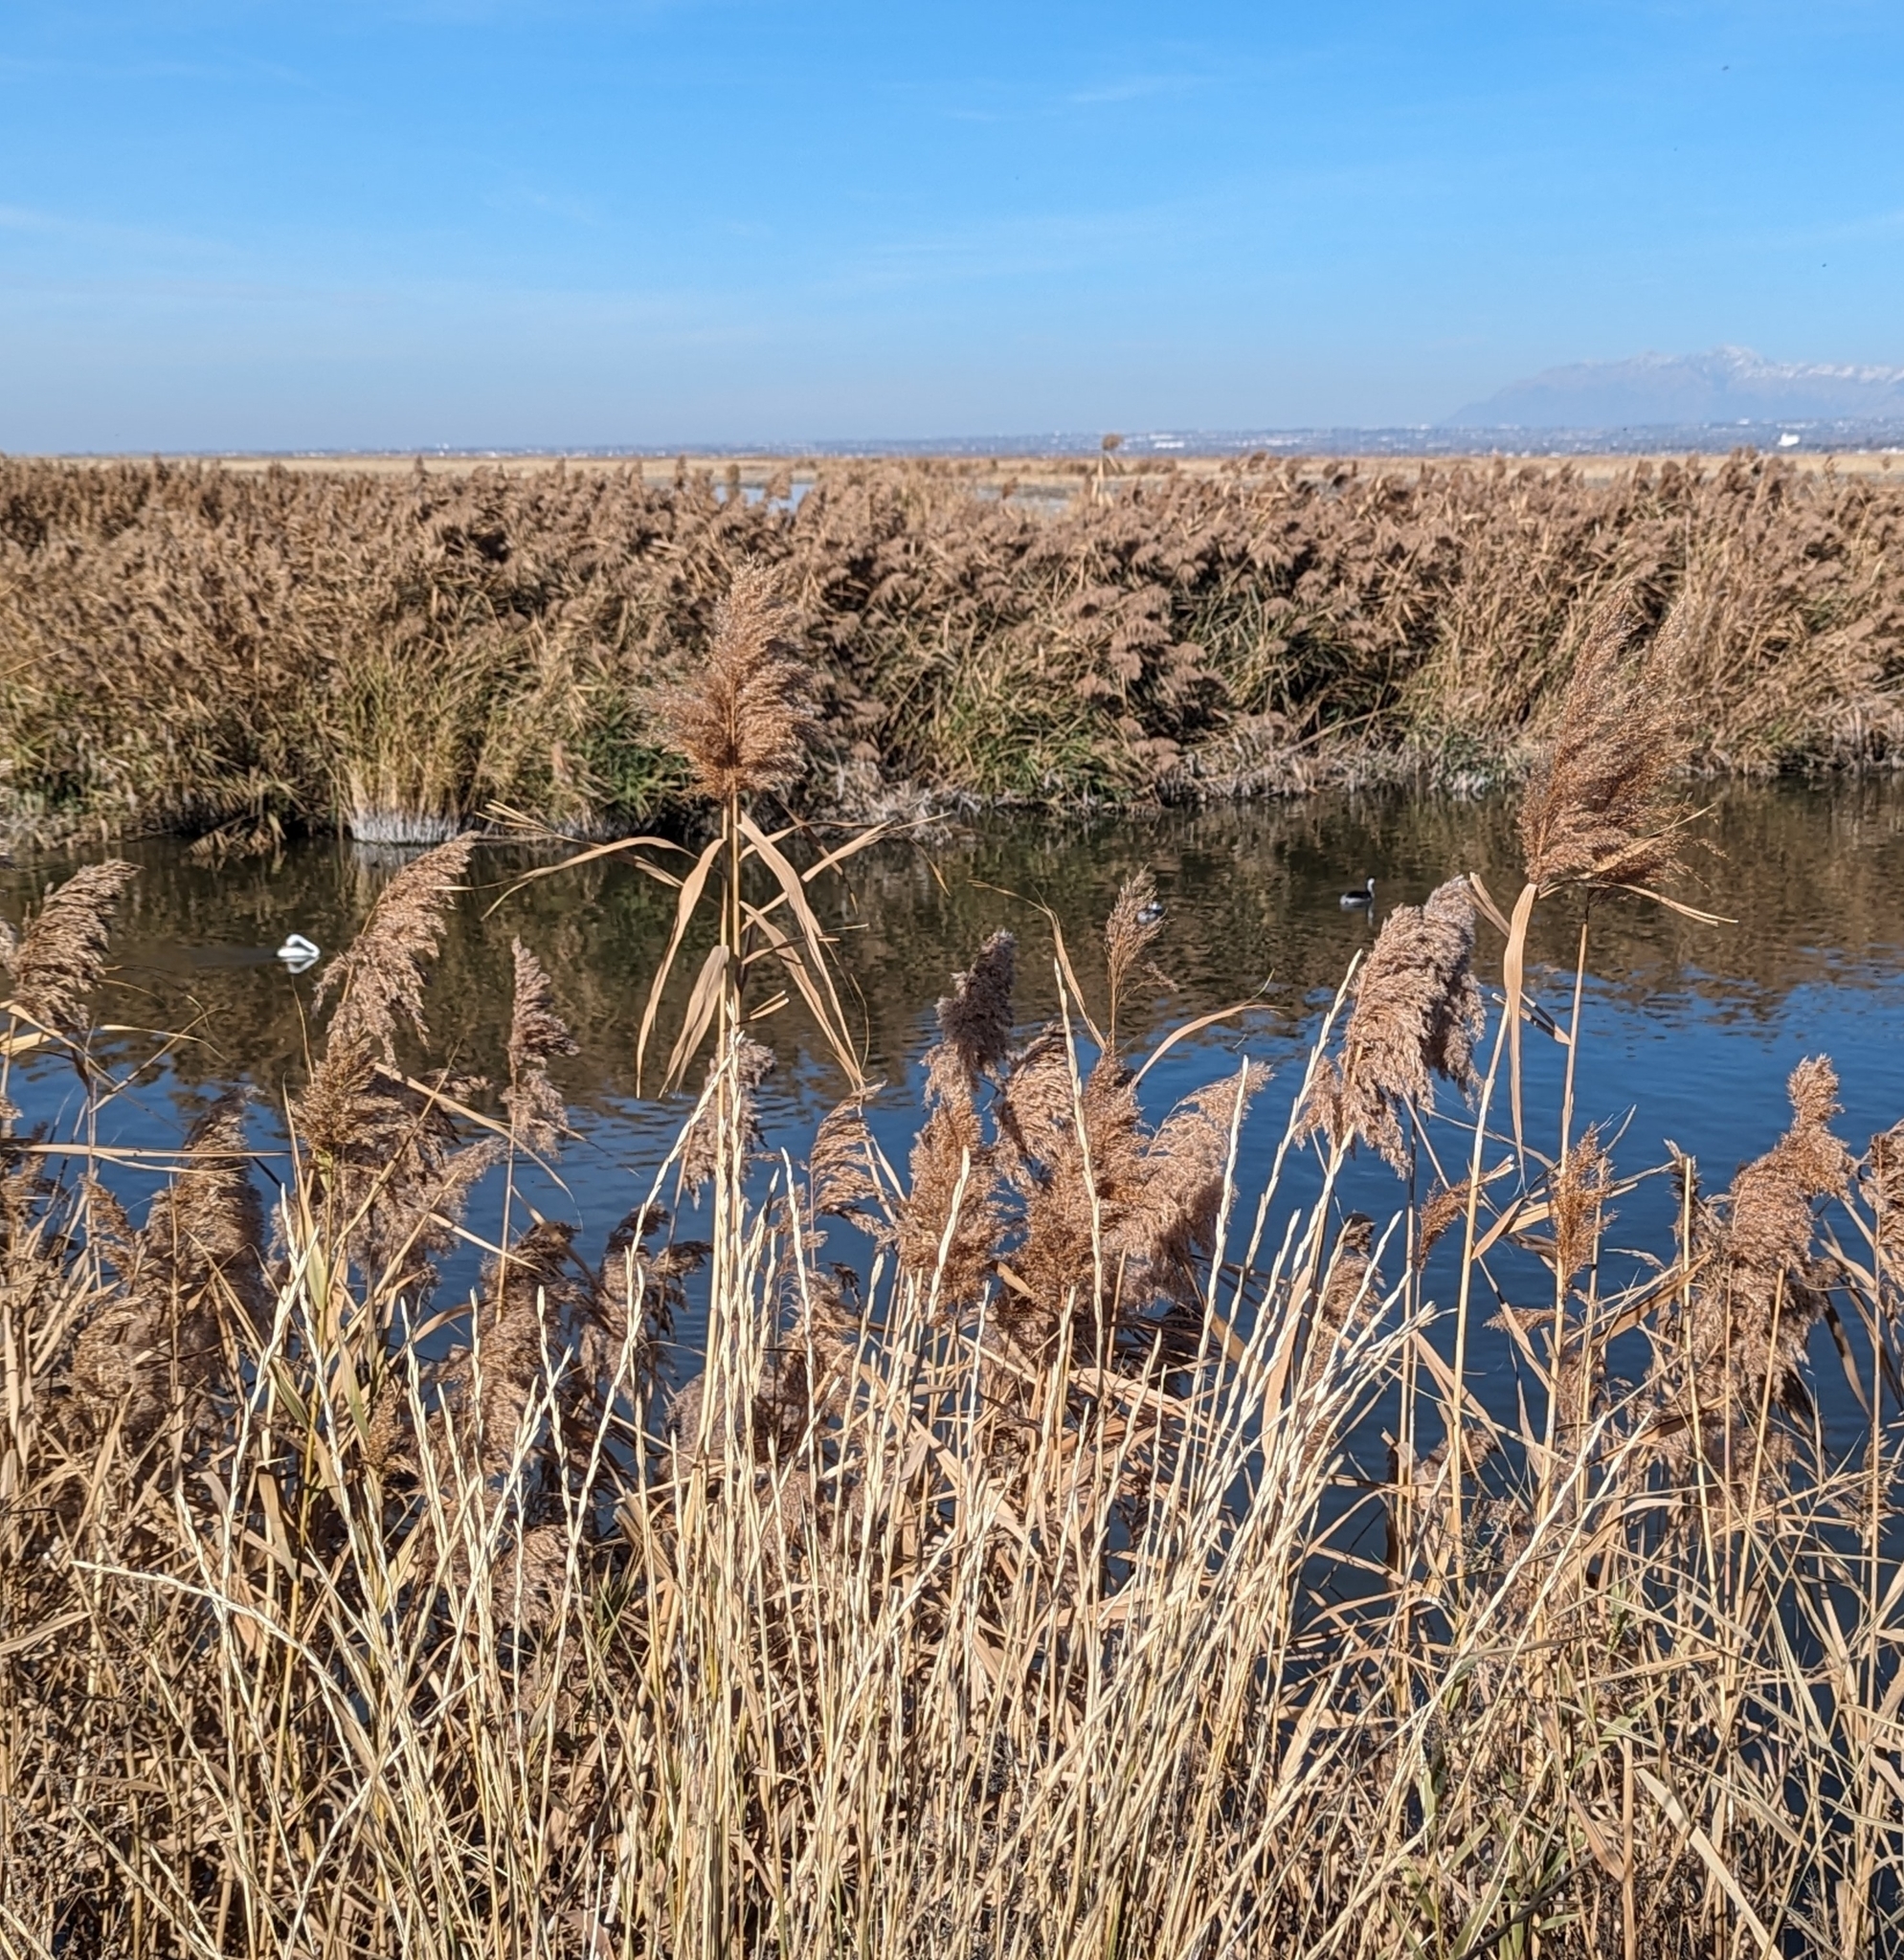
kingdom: Plantae
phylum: Tracheophyta
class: Liliopsida
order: Poales
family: Poaceae
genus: Phragmites
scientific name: Phragmites australis
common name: Common reed
